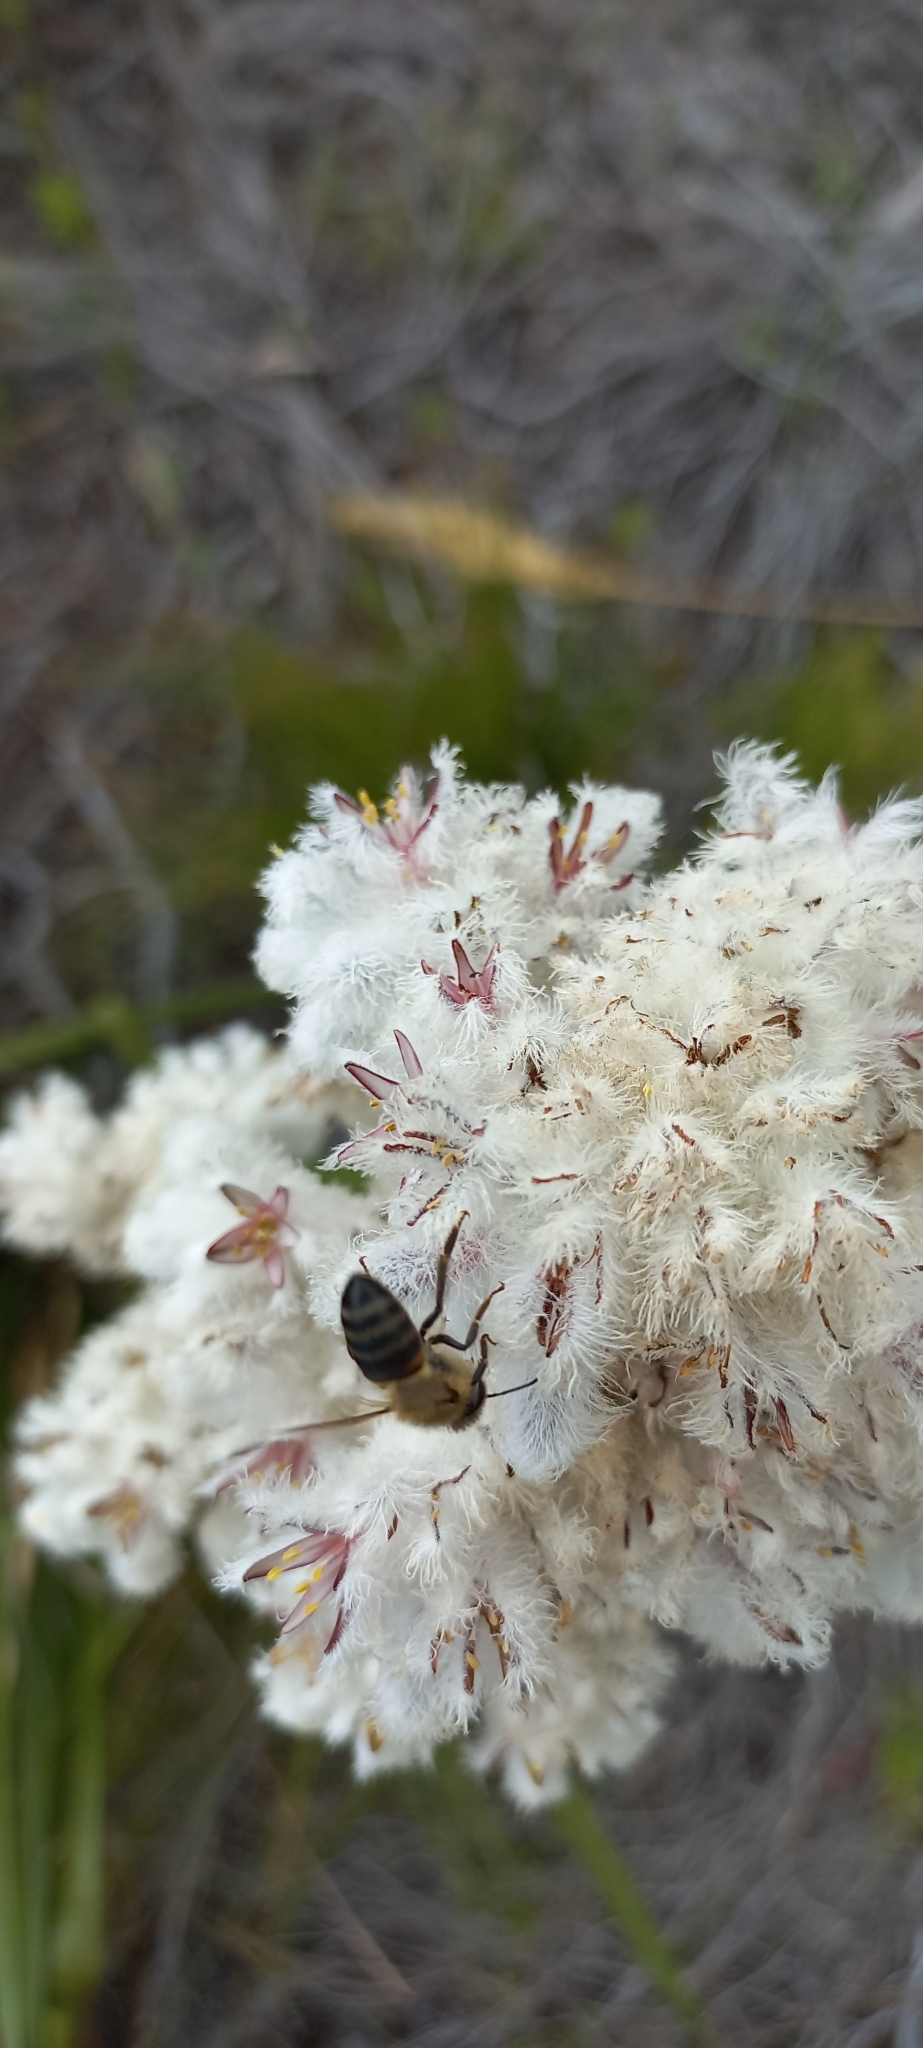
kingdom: Plantae
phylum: Tracheophyta
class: Liliopsida
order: Asparagales
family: Lanariaceae
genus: Lanaria
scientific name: Lanaria lanata
